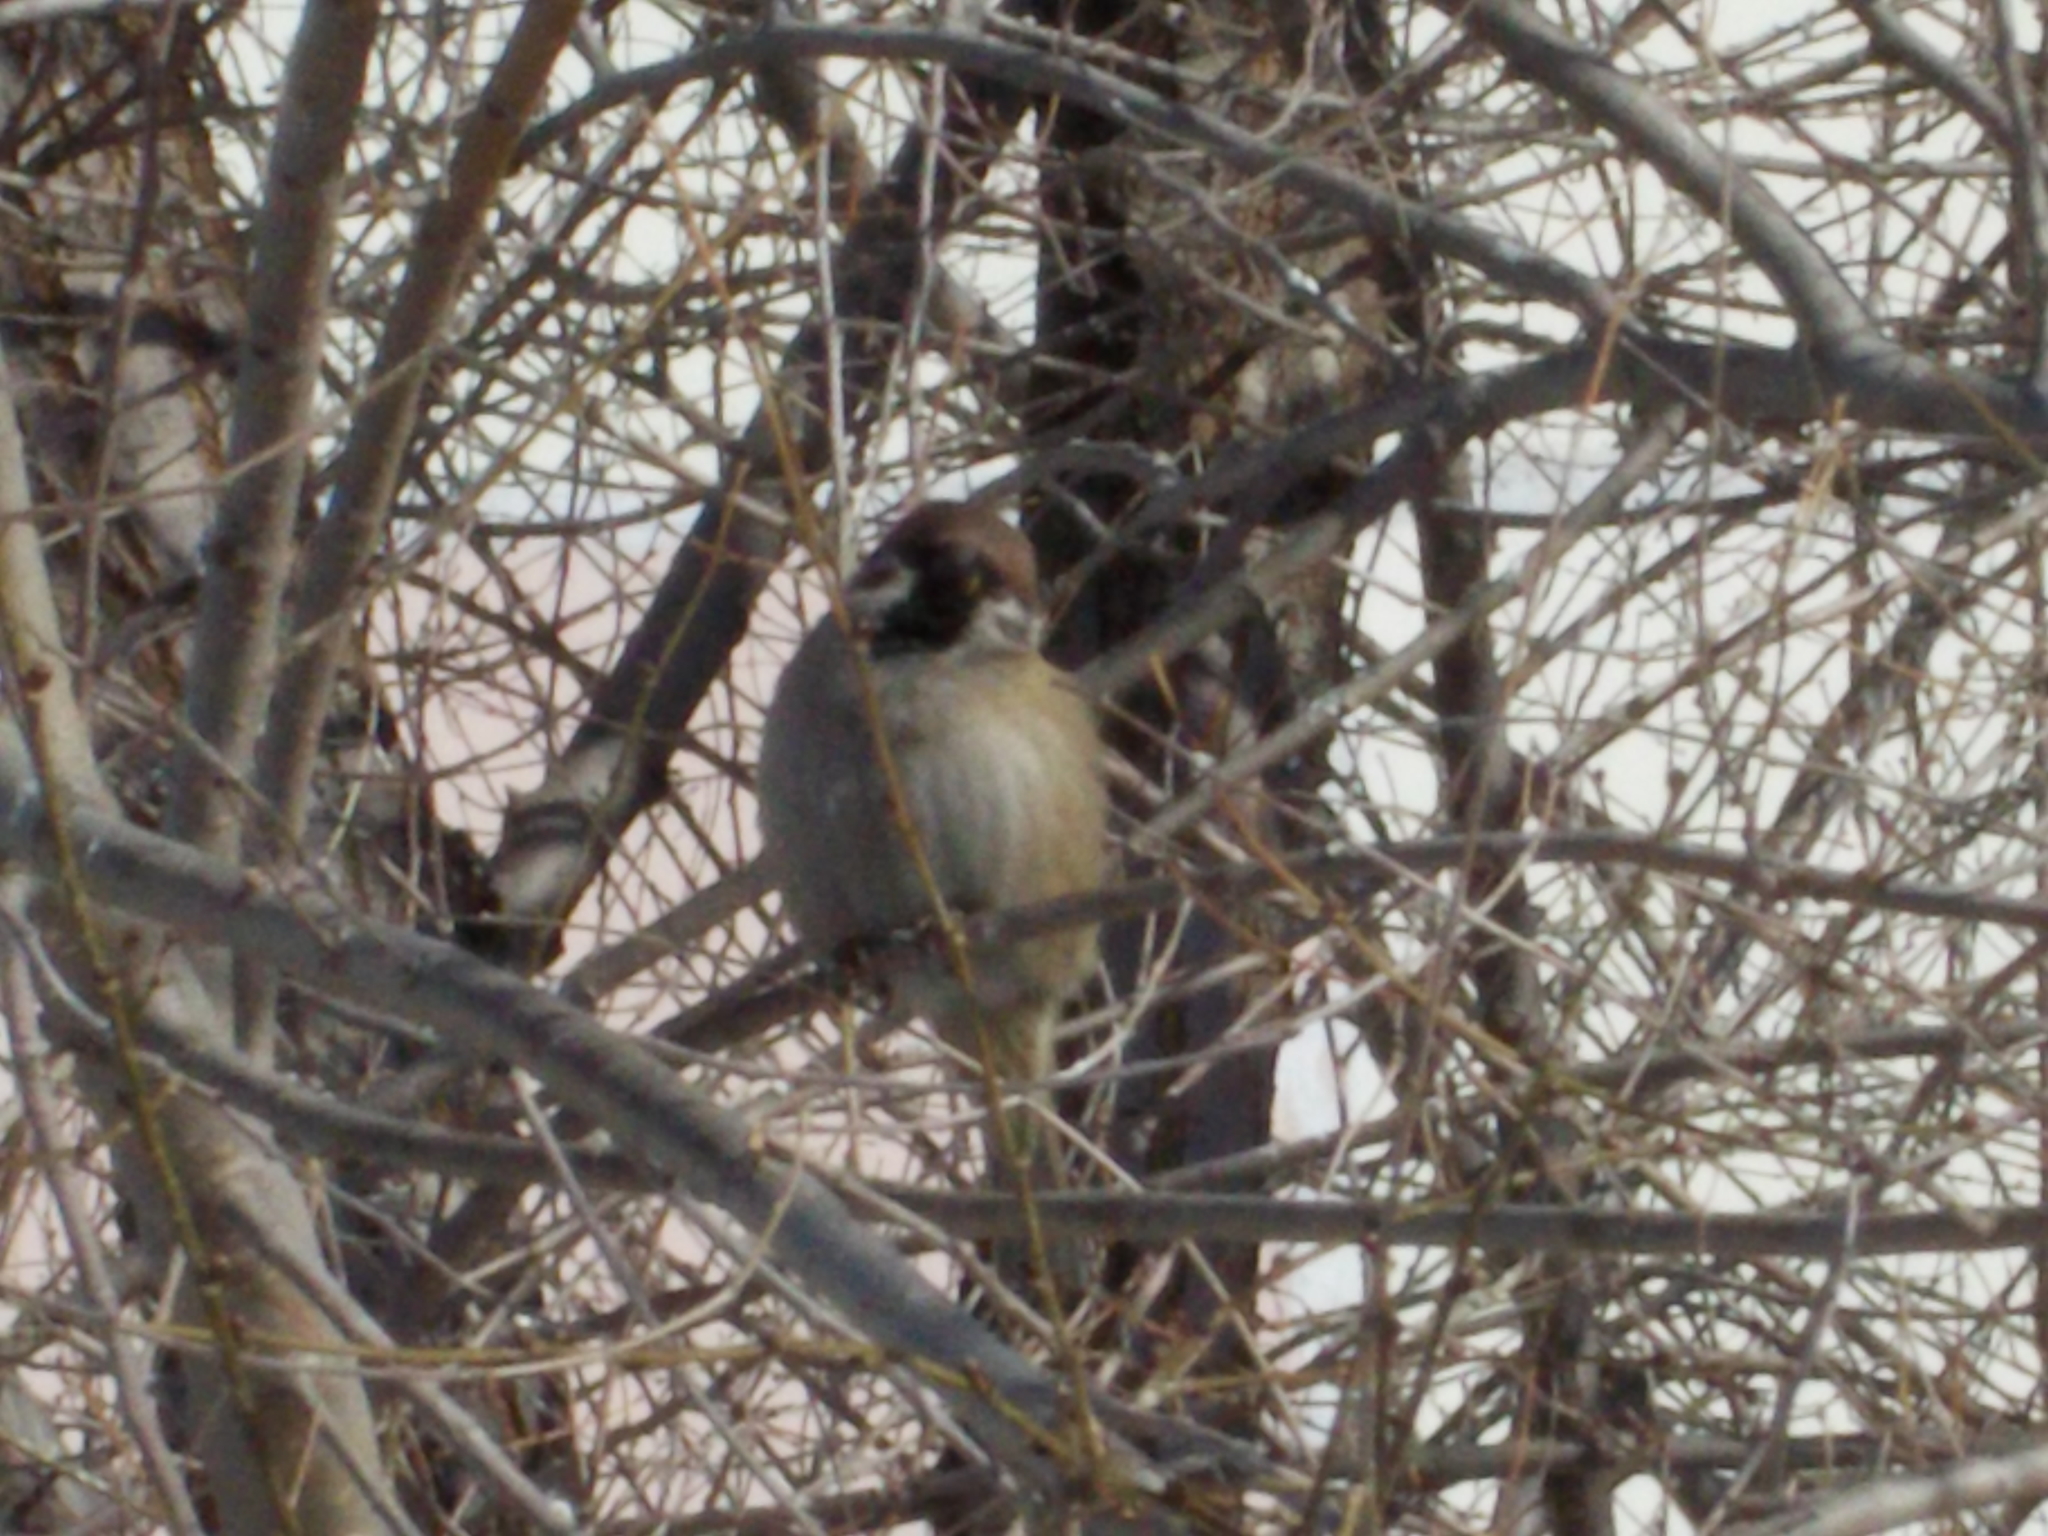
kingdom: Animalia
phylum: Chordata
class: Aves
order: Passeriformes
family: Passeridae
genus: Passer
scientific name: Passer montanus
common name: Eurasian tree sparrow
